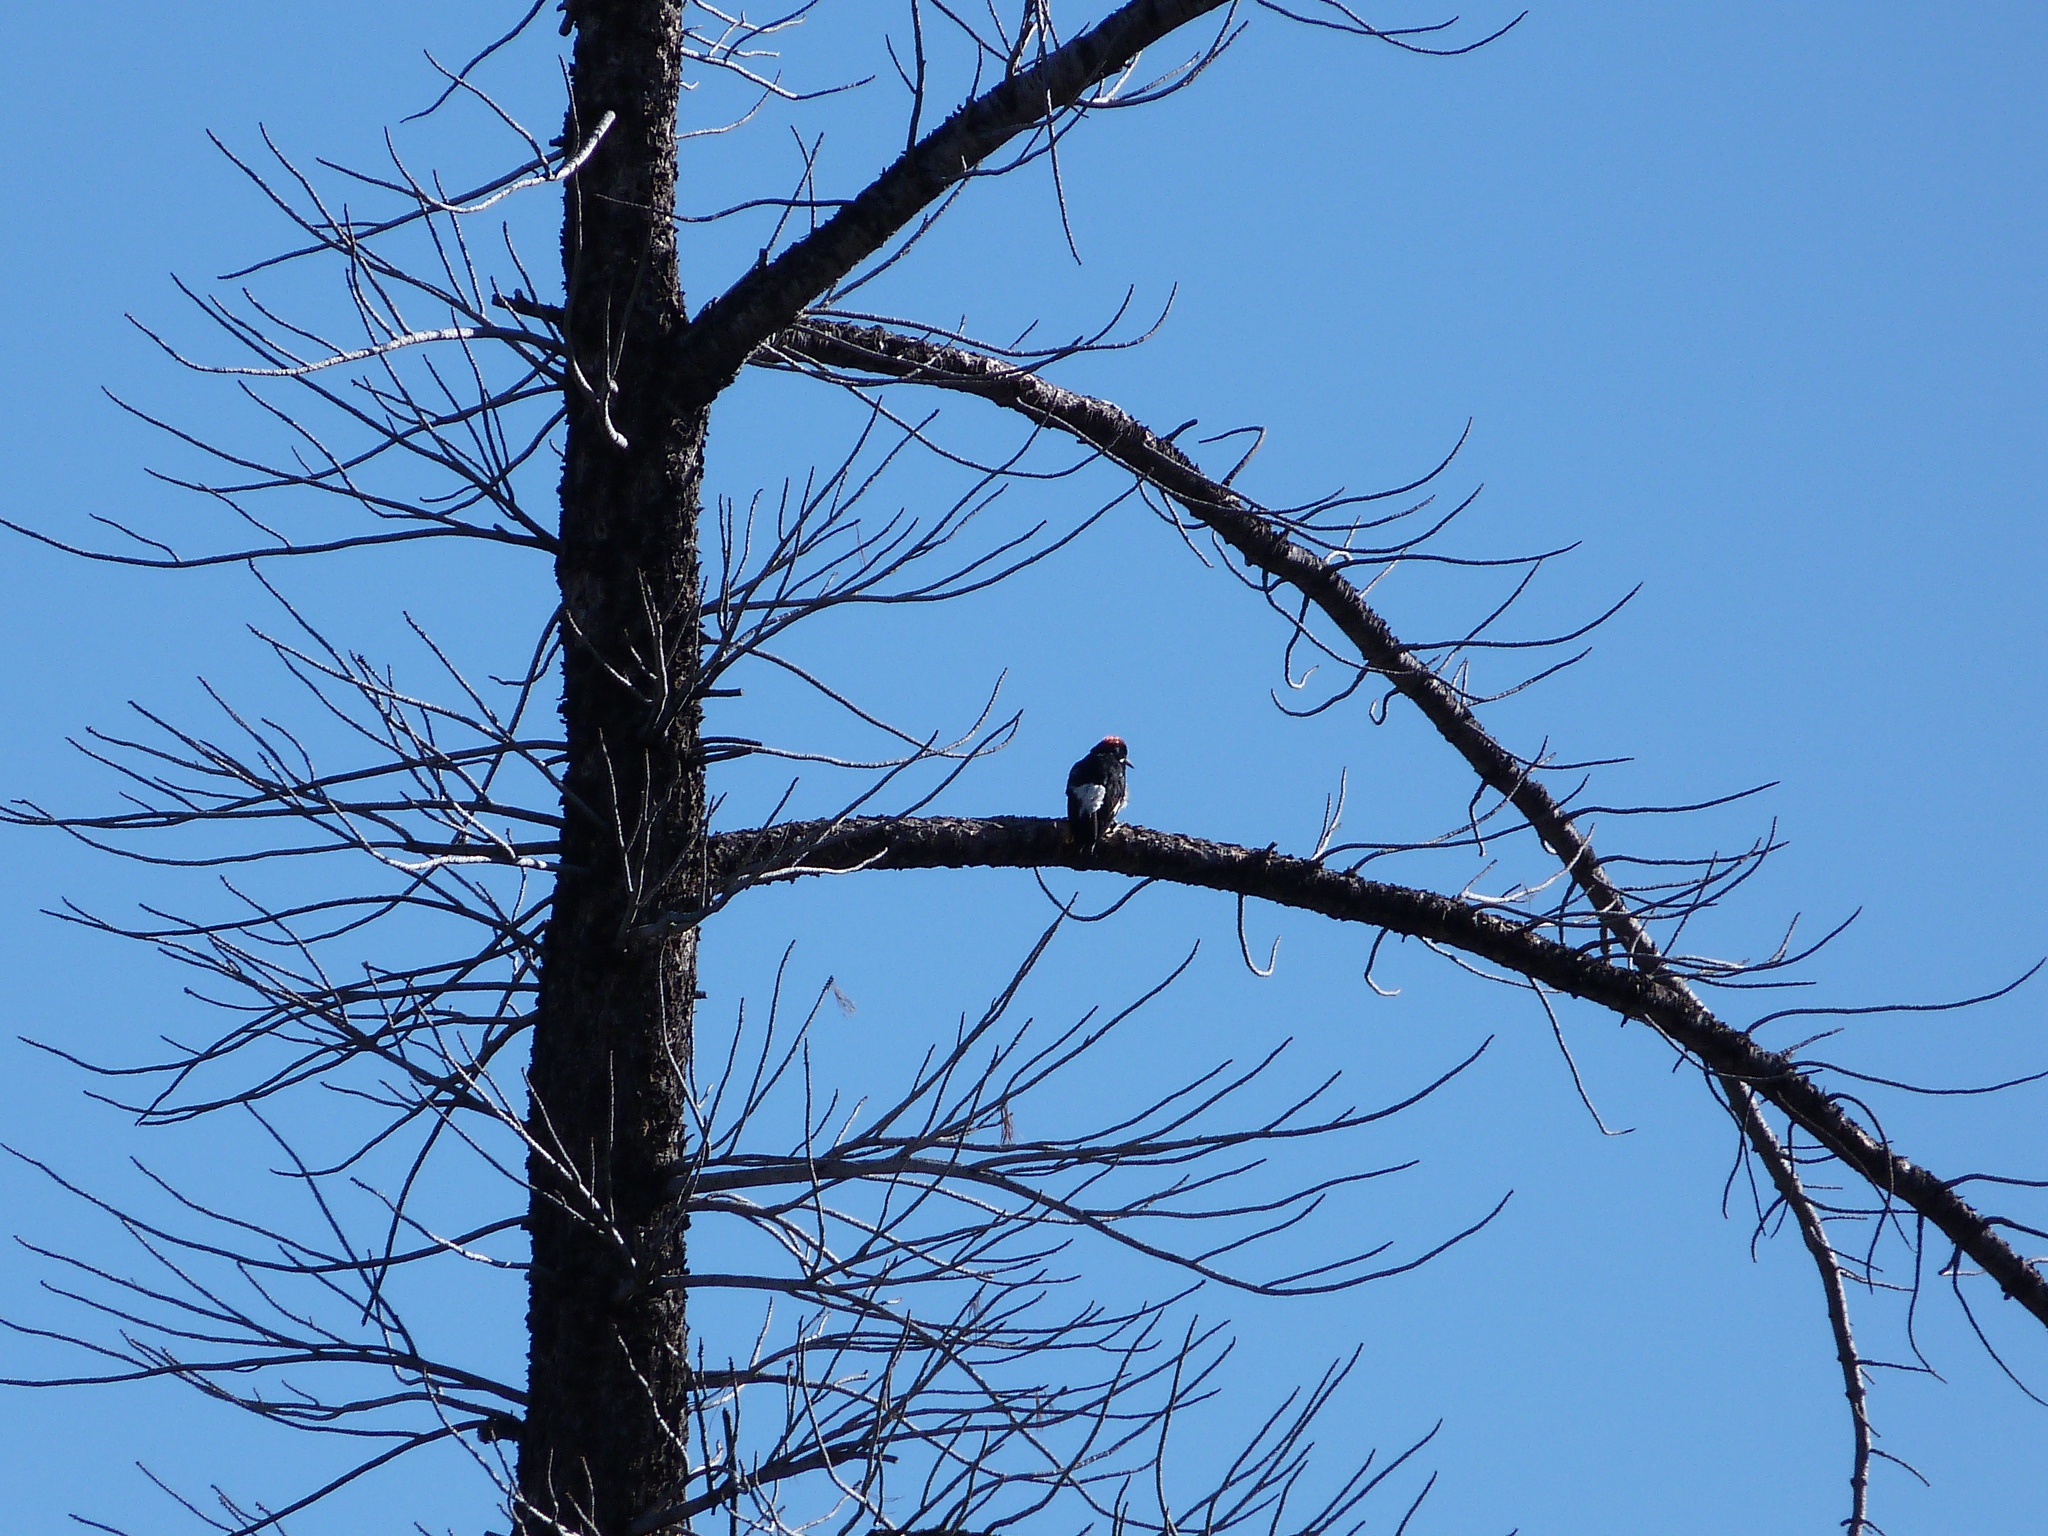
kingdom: Animalia
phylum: Chordata
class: Aves
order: Piciformes
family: Picidae
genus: Melanerpes
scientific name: Melanerpes formicivorus
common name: Acorn woodpecker
